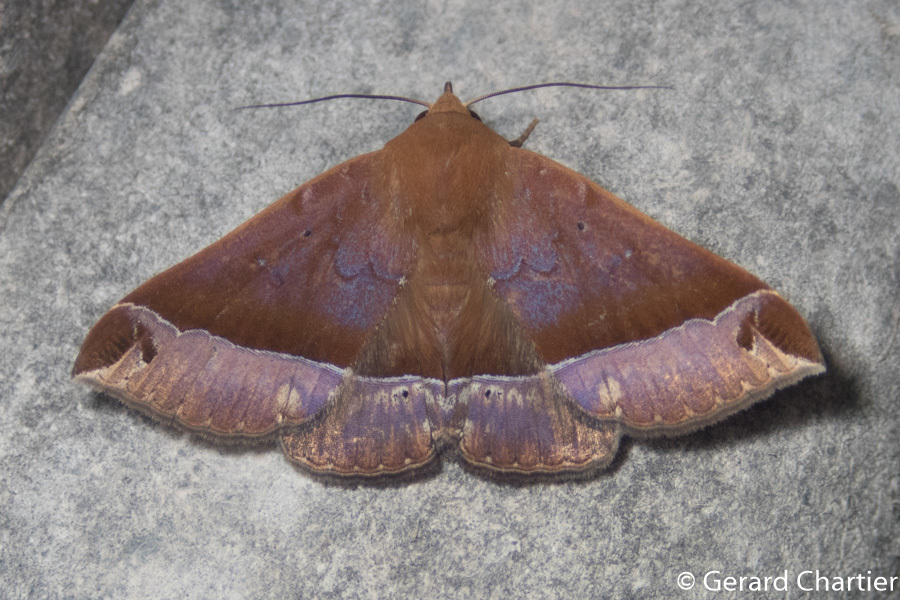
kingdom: Animalia
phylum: Arthropoda
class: Insecta
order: Lepidoptera
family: Erebidae
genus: Delgamma
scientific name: Delgamma pangonia
